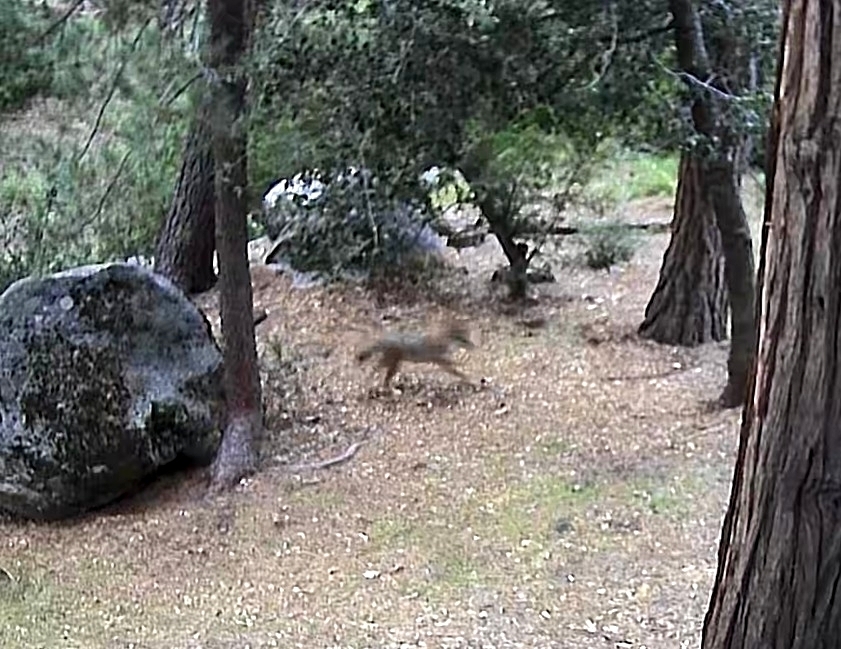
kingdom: Animalia
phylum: Chordata
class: Mammalia
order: Carnivora
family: Canidae
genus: Canis
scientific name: Canis latrans
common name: Coyote
